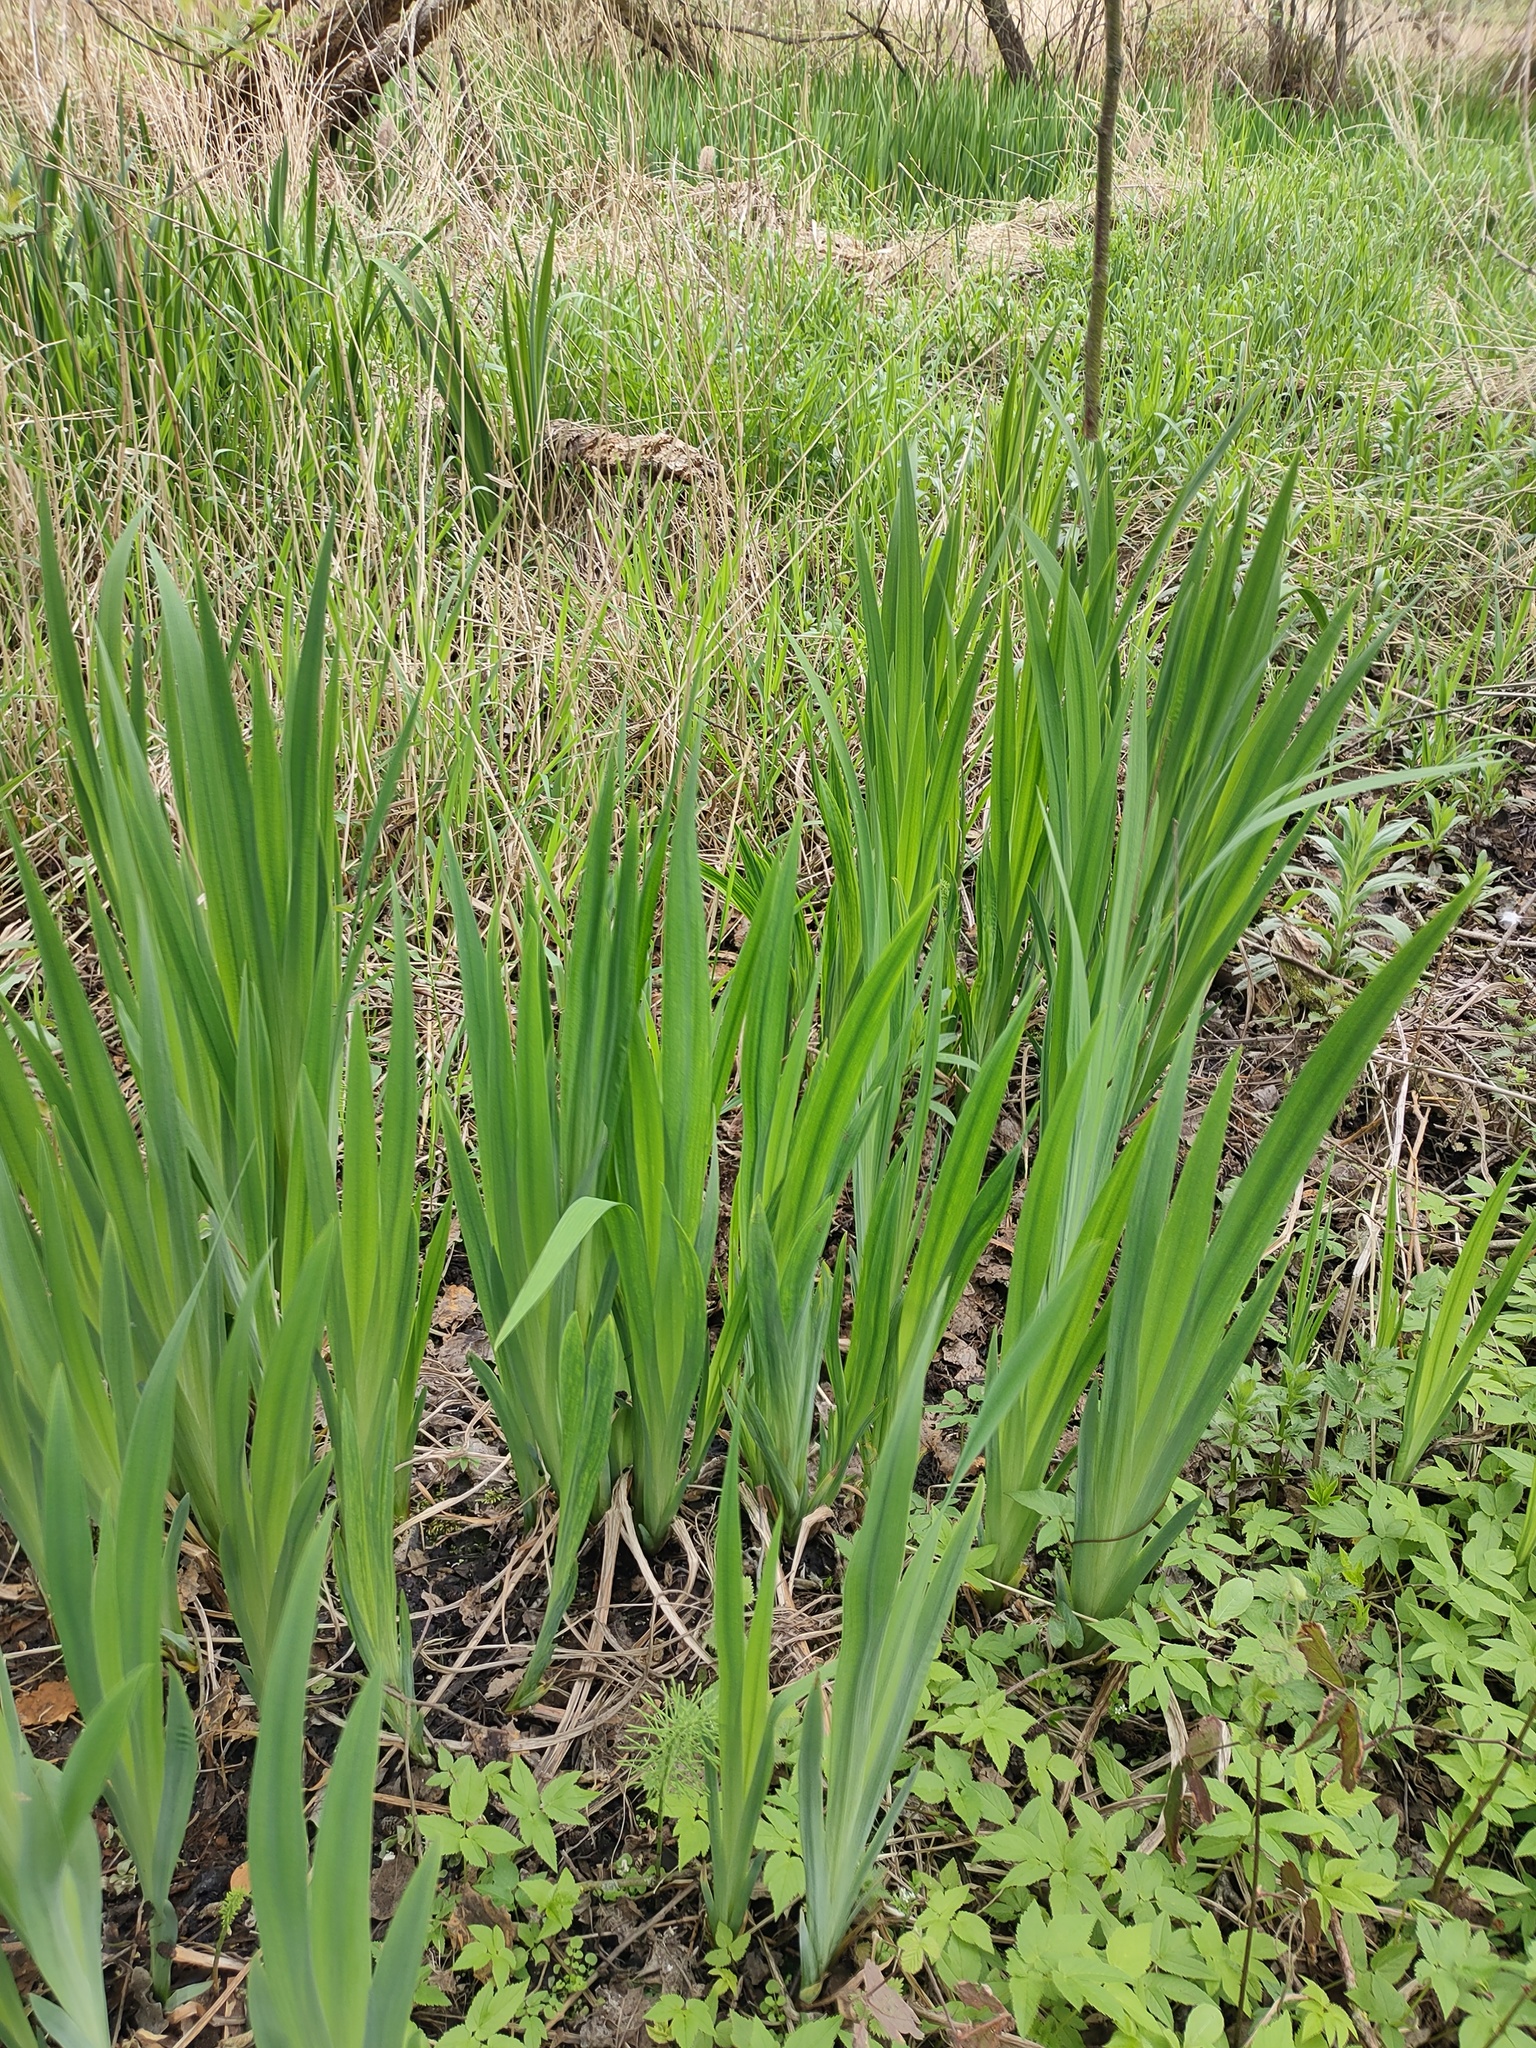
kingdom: Plantae
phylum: Tracheophyta
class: Liliopsida
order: Asparagales
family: Iridaceae
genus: Iris
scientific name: Iris pseudacorus
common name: Yellow flag
